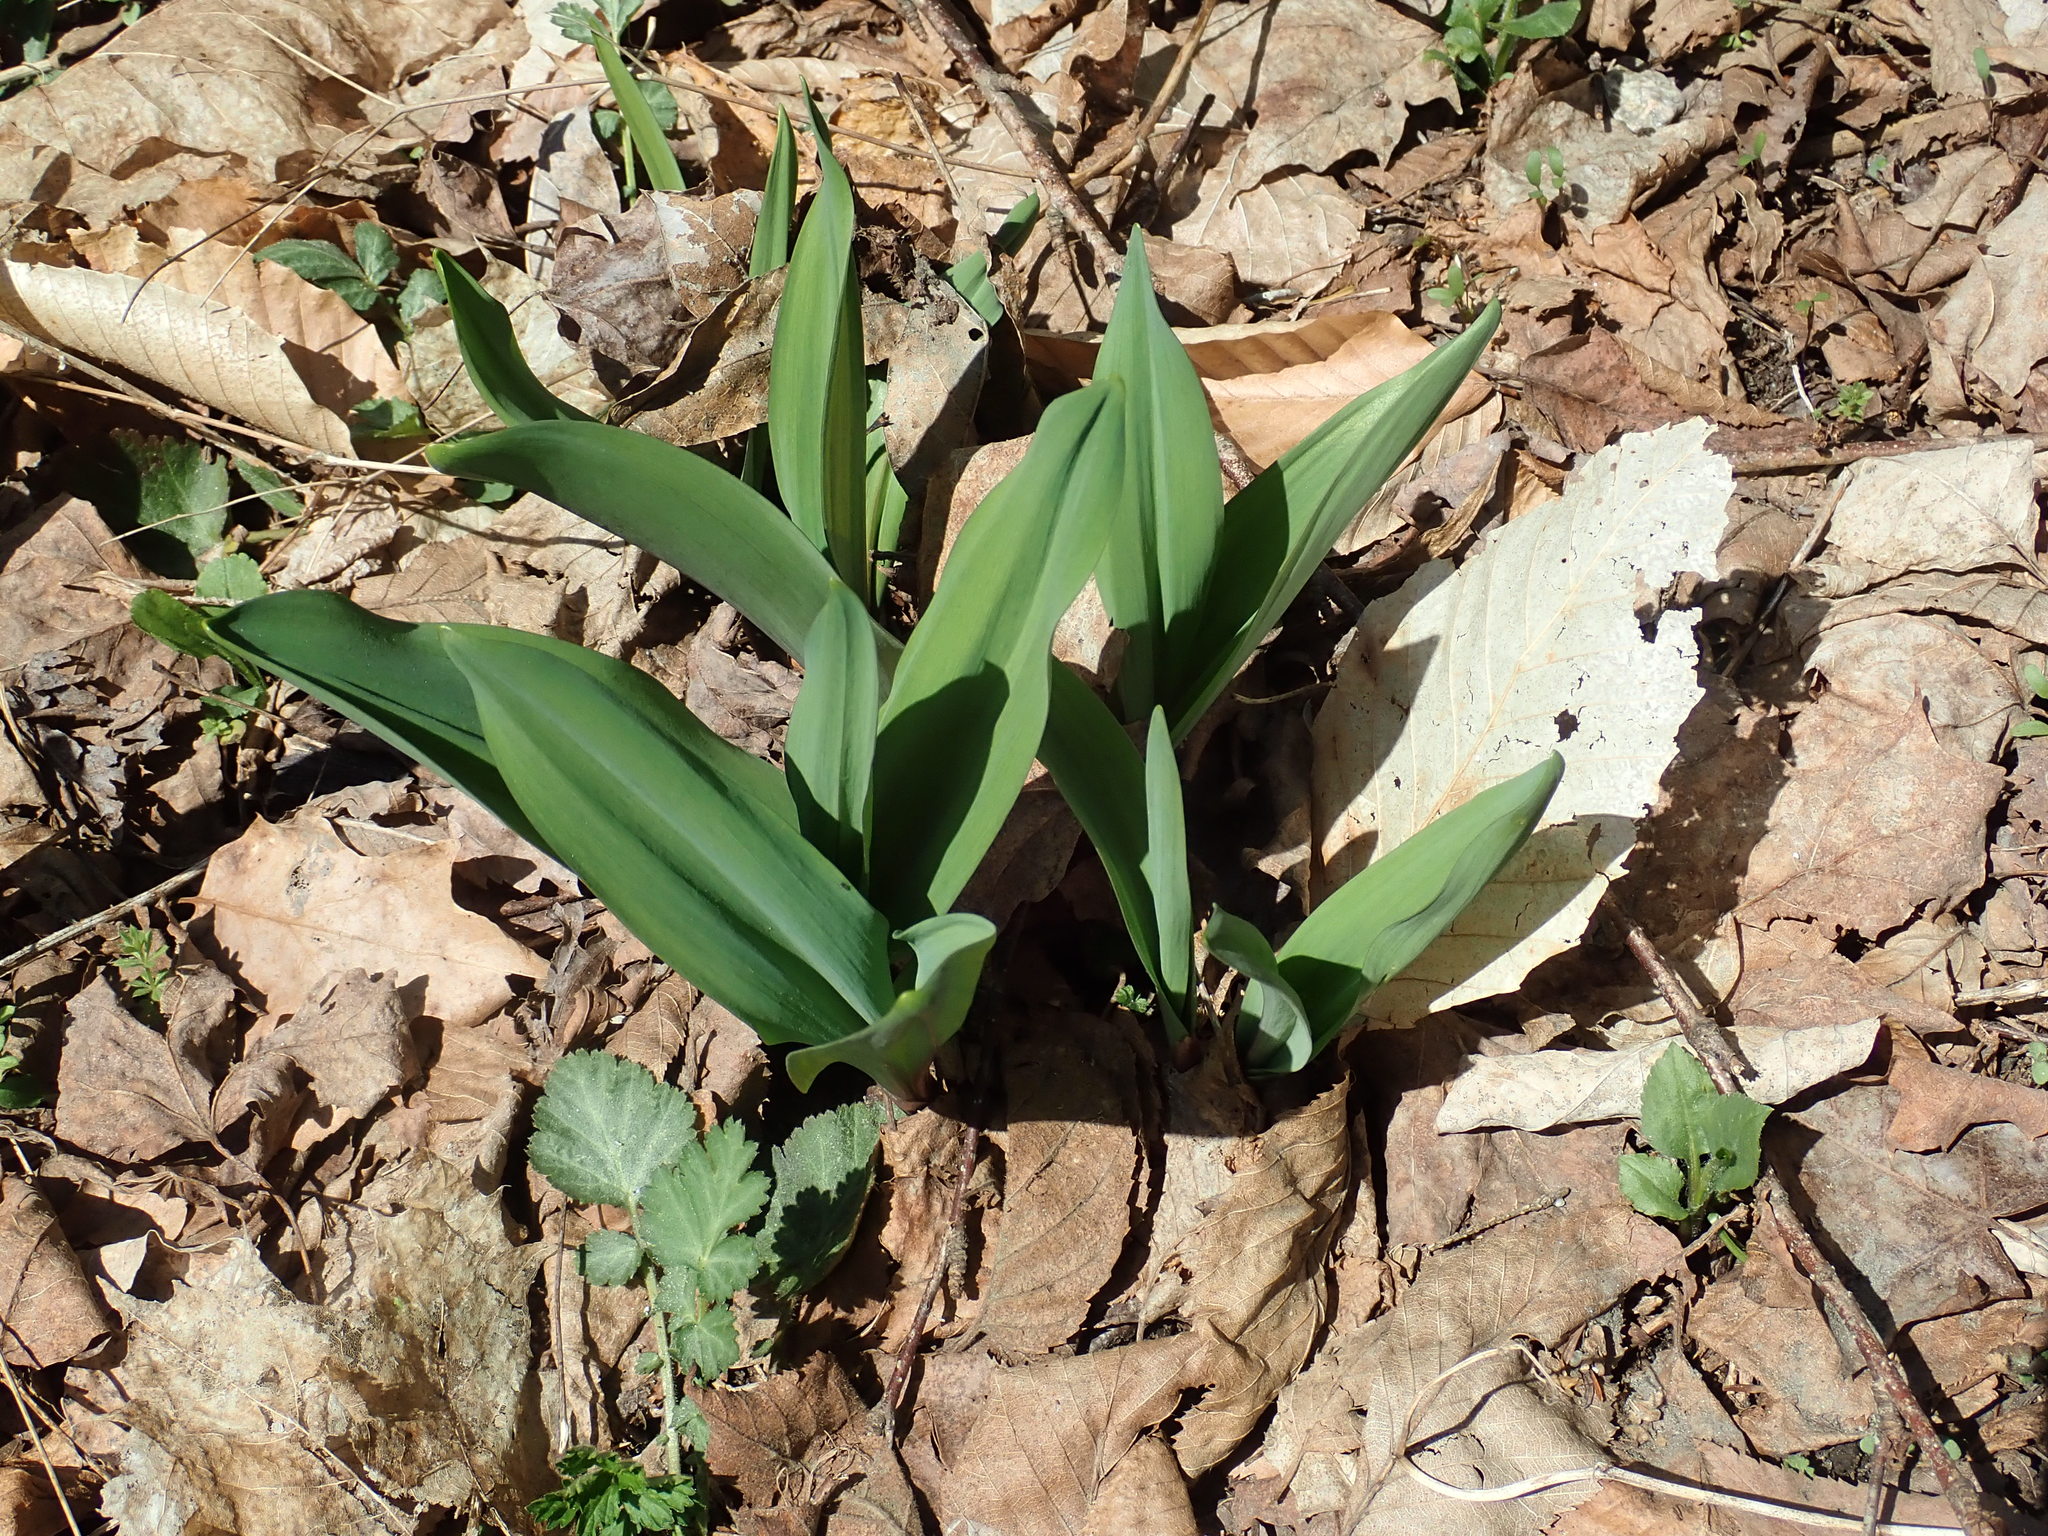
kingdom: Plantae
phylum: Tracheophyta
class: Liliopsida
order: Asparagales
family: Amaryllidaceae
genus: Allium
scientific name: Allium tricoccum
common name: Ramp
